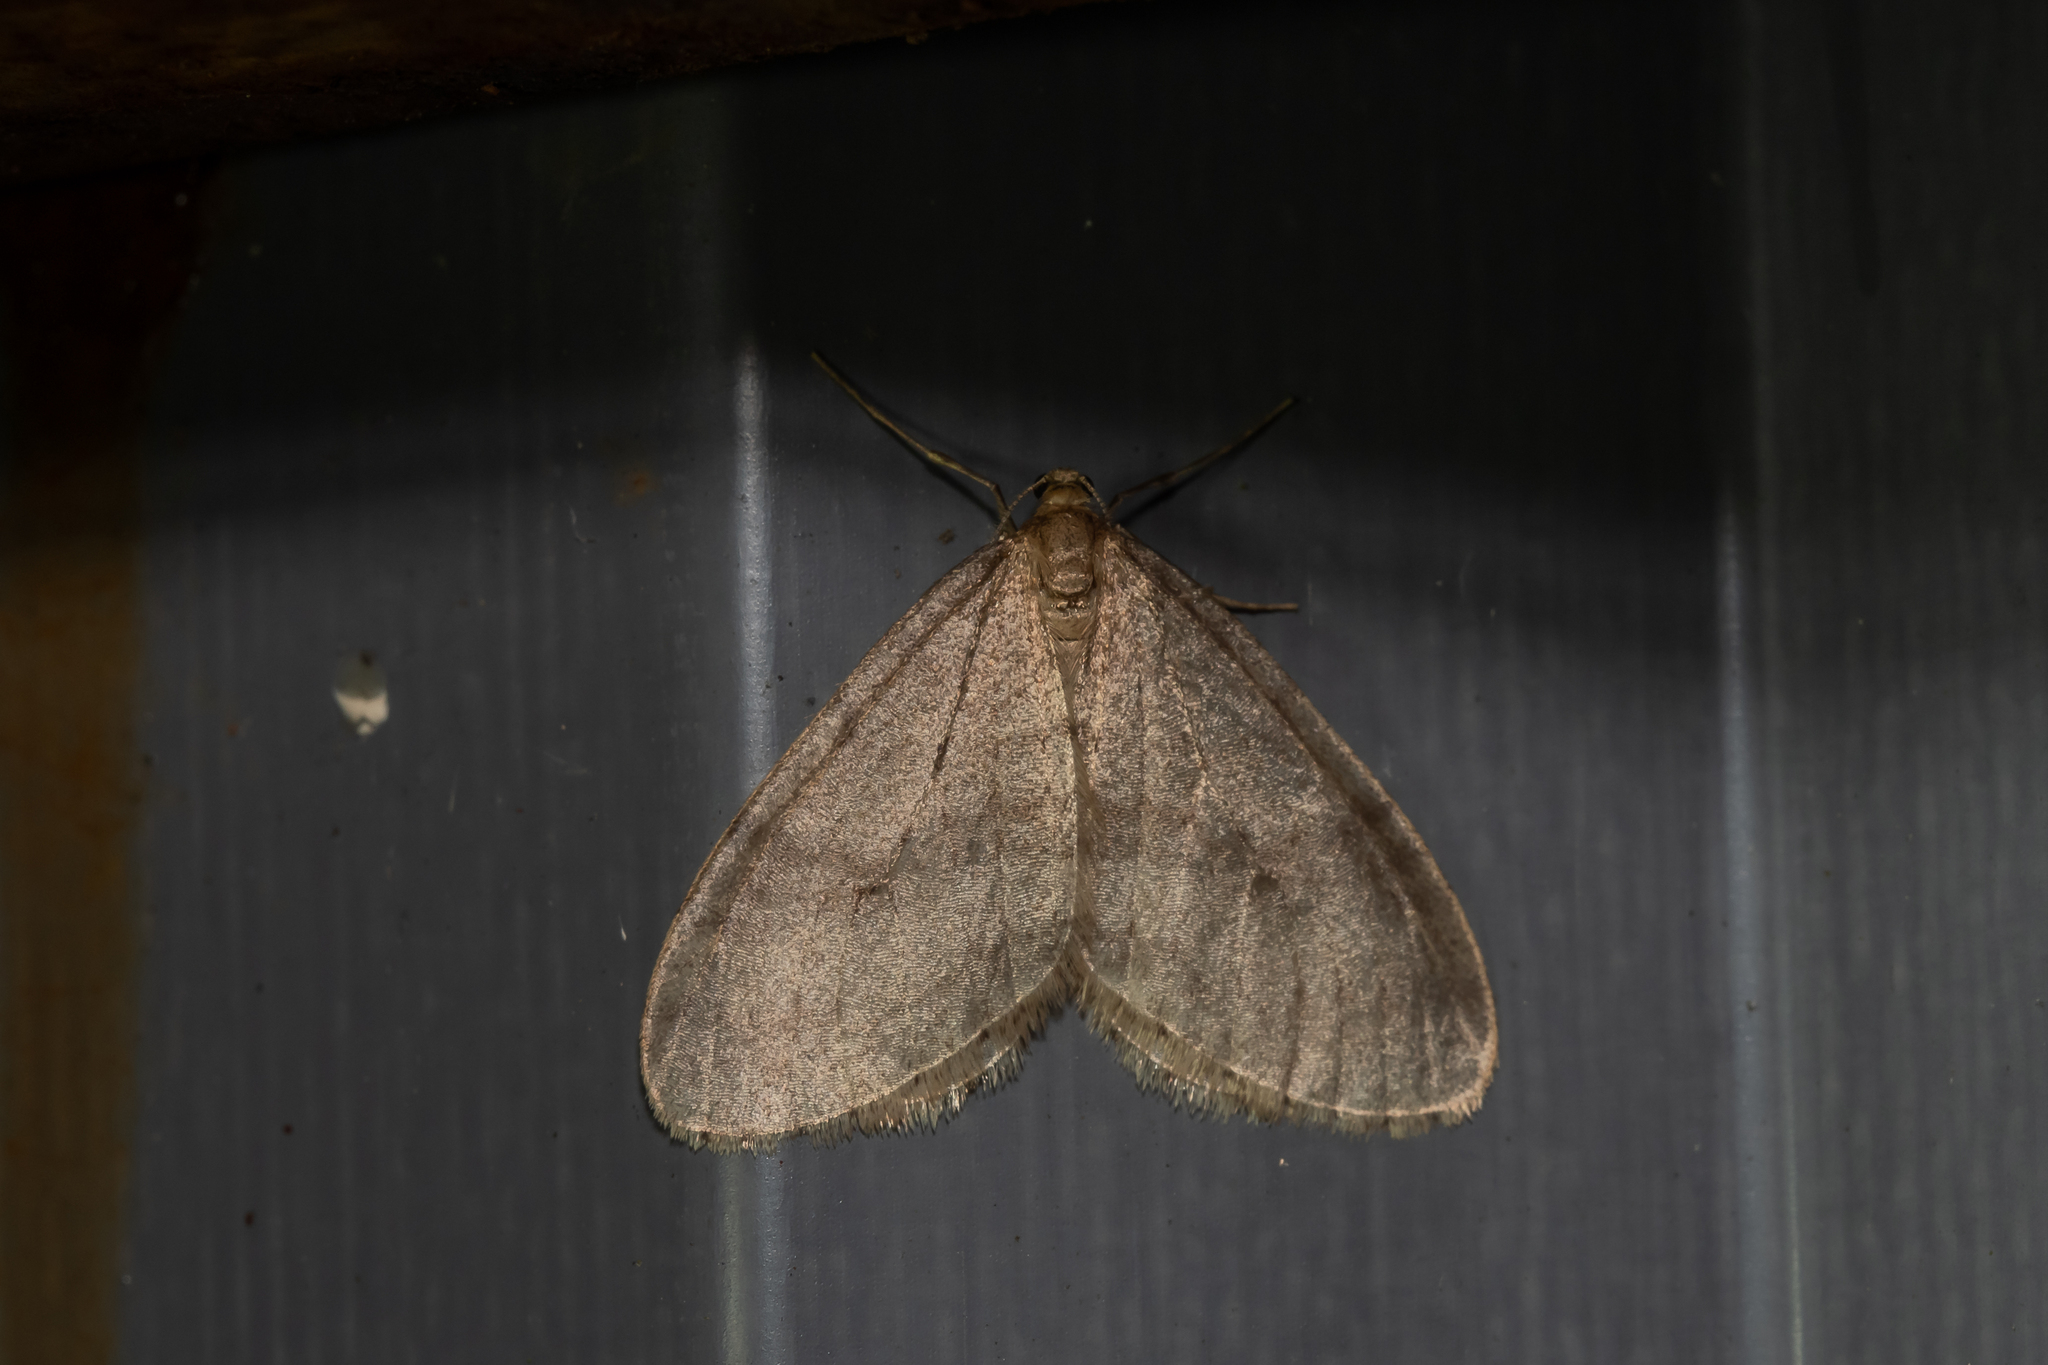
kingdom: Animalia
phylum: Arthropoda
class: Insecta
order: Lepidoptera
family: Geometridae
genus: Operophtera
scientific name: Operophtera brumata
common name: Winter moth
